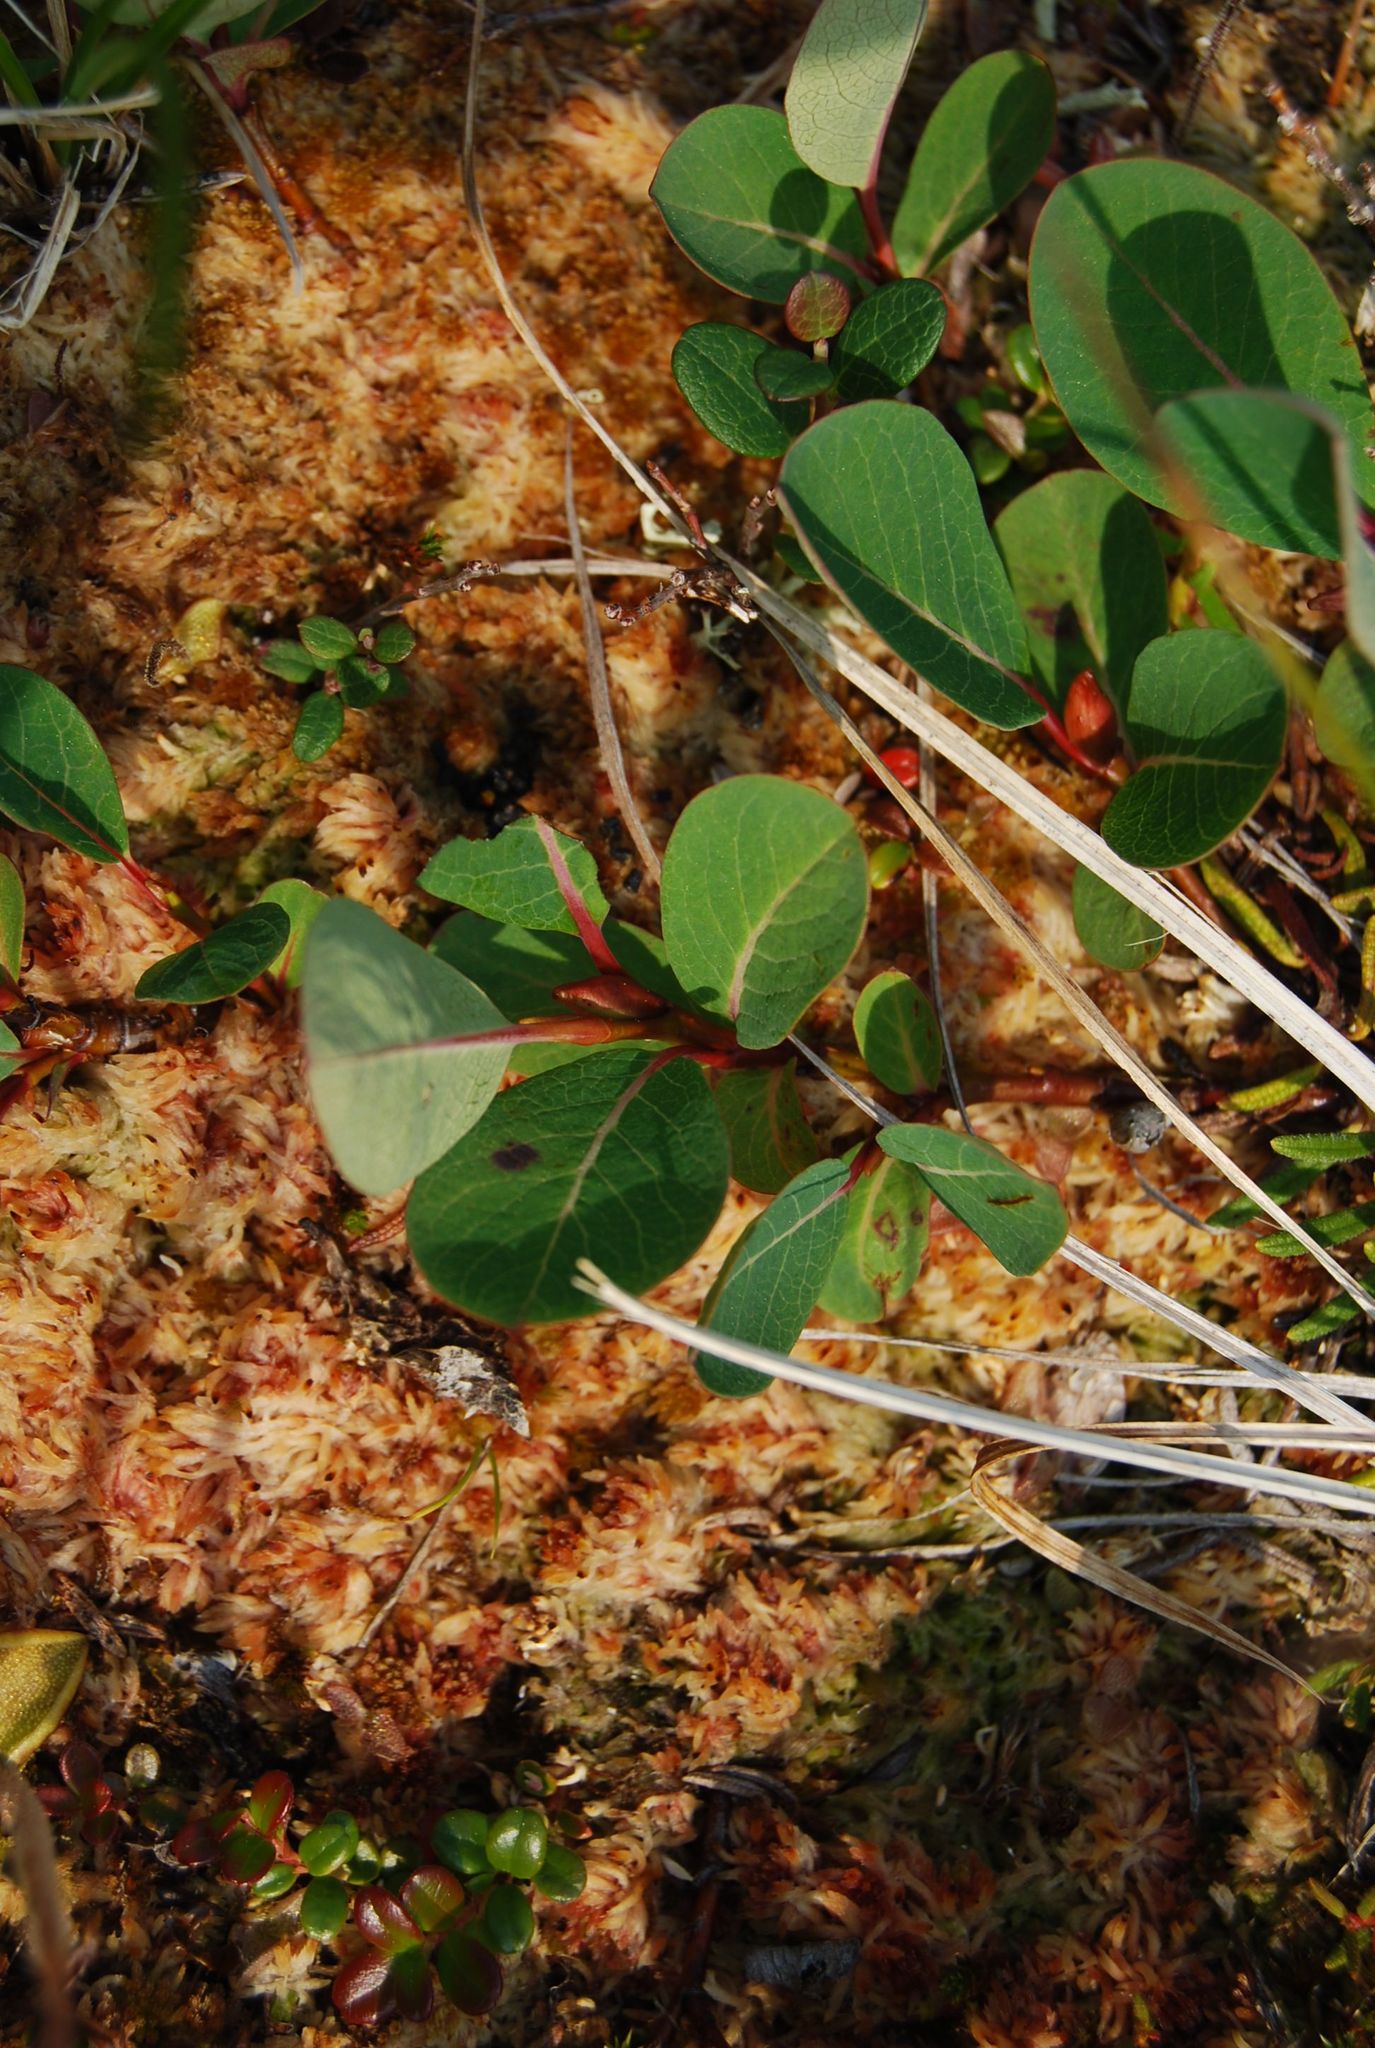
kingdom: Plantae
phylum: Tracheophyta
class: Magnoliopsida
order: Malpighiales
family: Salicaceae
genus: Salix
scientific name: Salix alexii-skvortzovii
